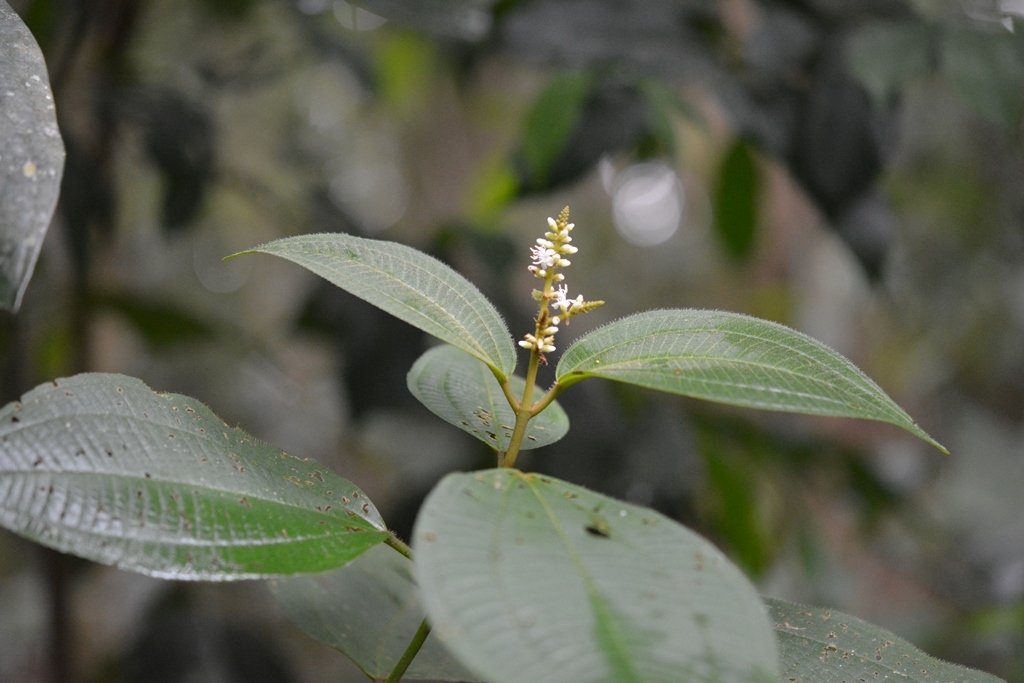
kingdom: Plantae
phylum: Tracheophyta
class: Magnoliopsida
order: Myrtales
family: Melastomataceae
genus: Miconia
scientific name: Miconia desmantha
